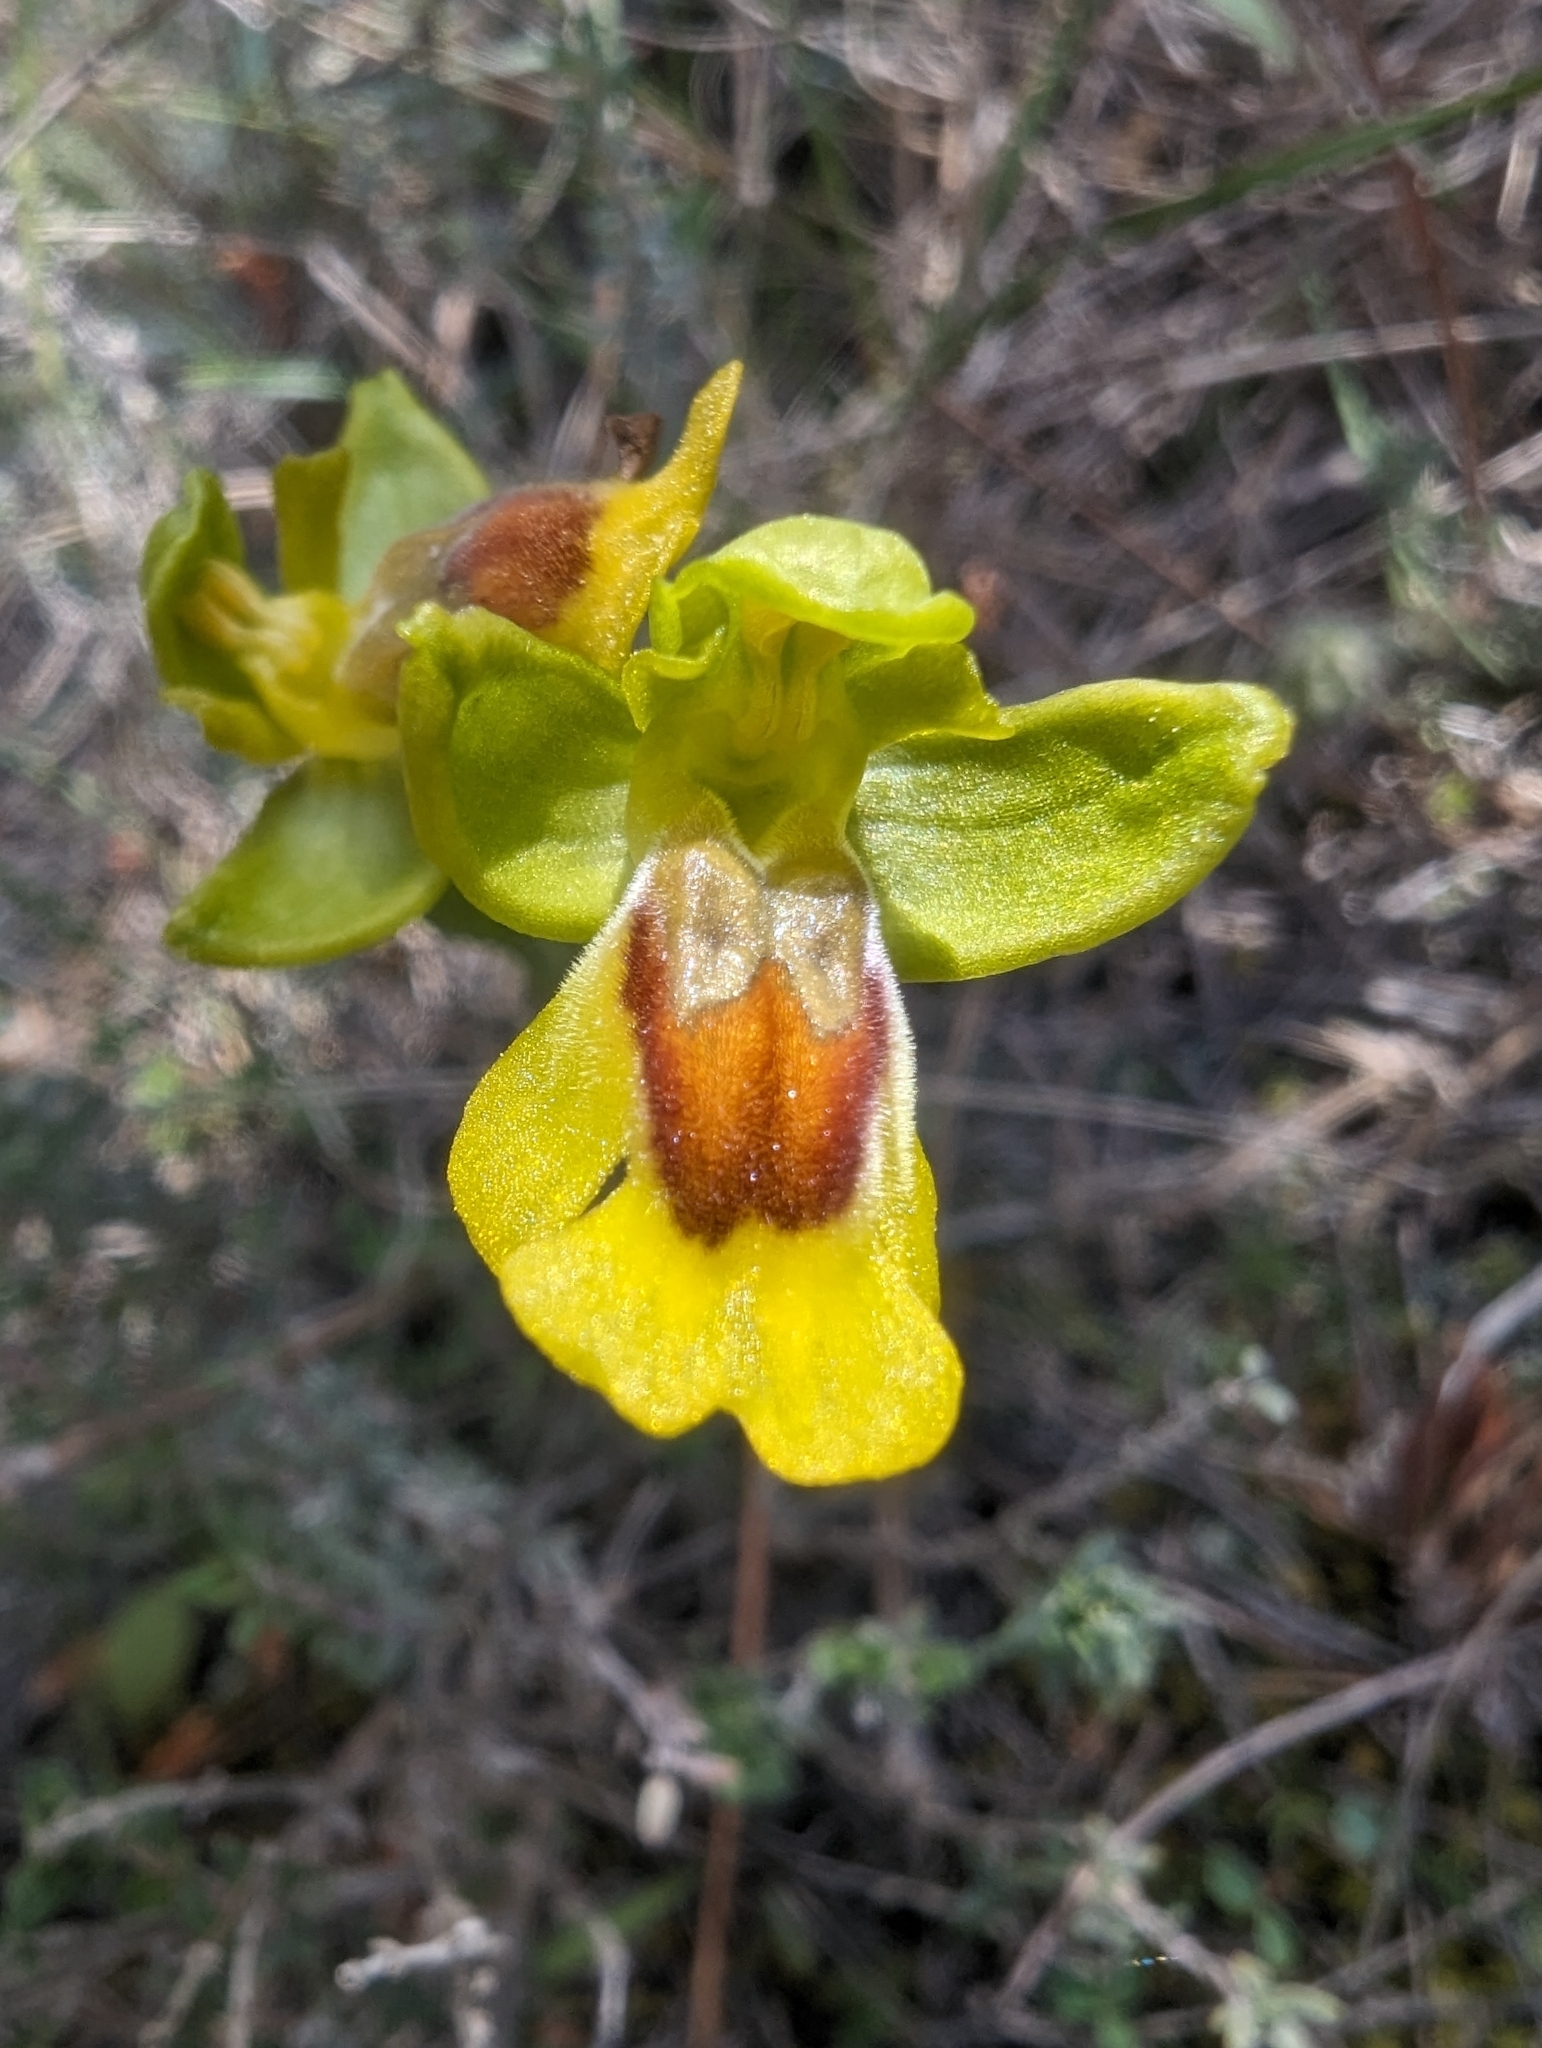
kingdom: Plantae
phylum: Tracheophyta
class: Liliopsida
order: Asparagales
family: Orchidaceae
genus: Ophrys
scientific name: Ophrys lutea
